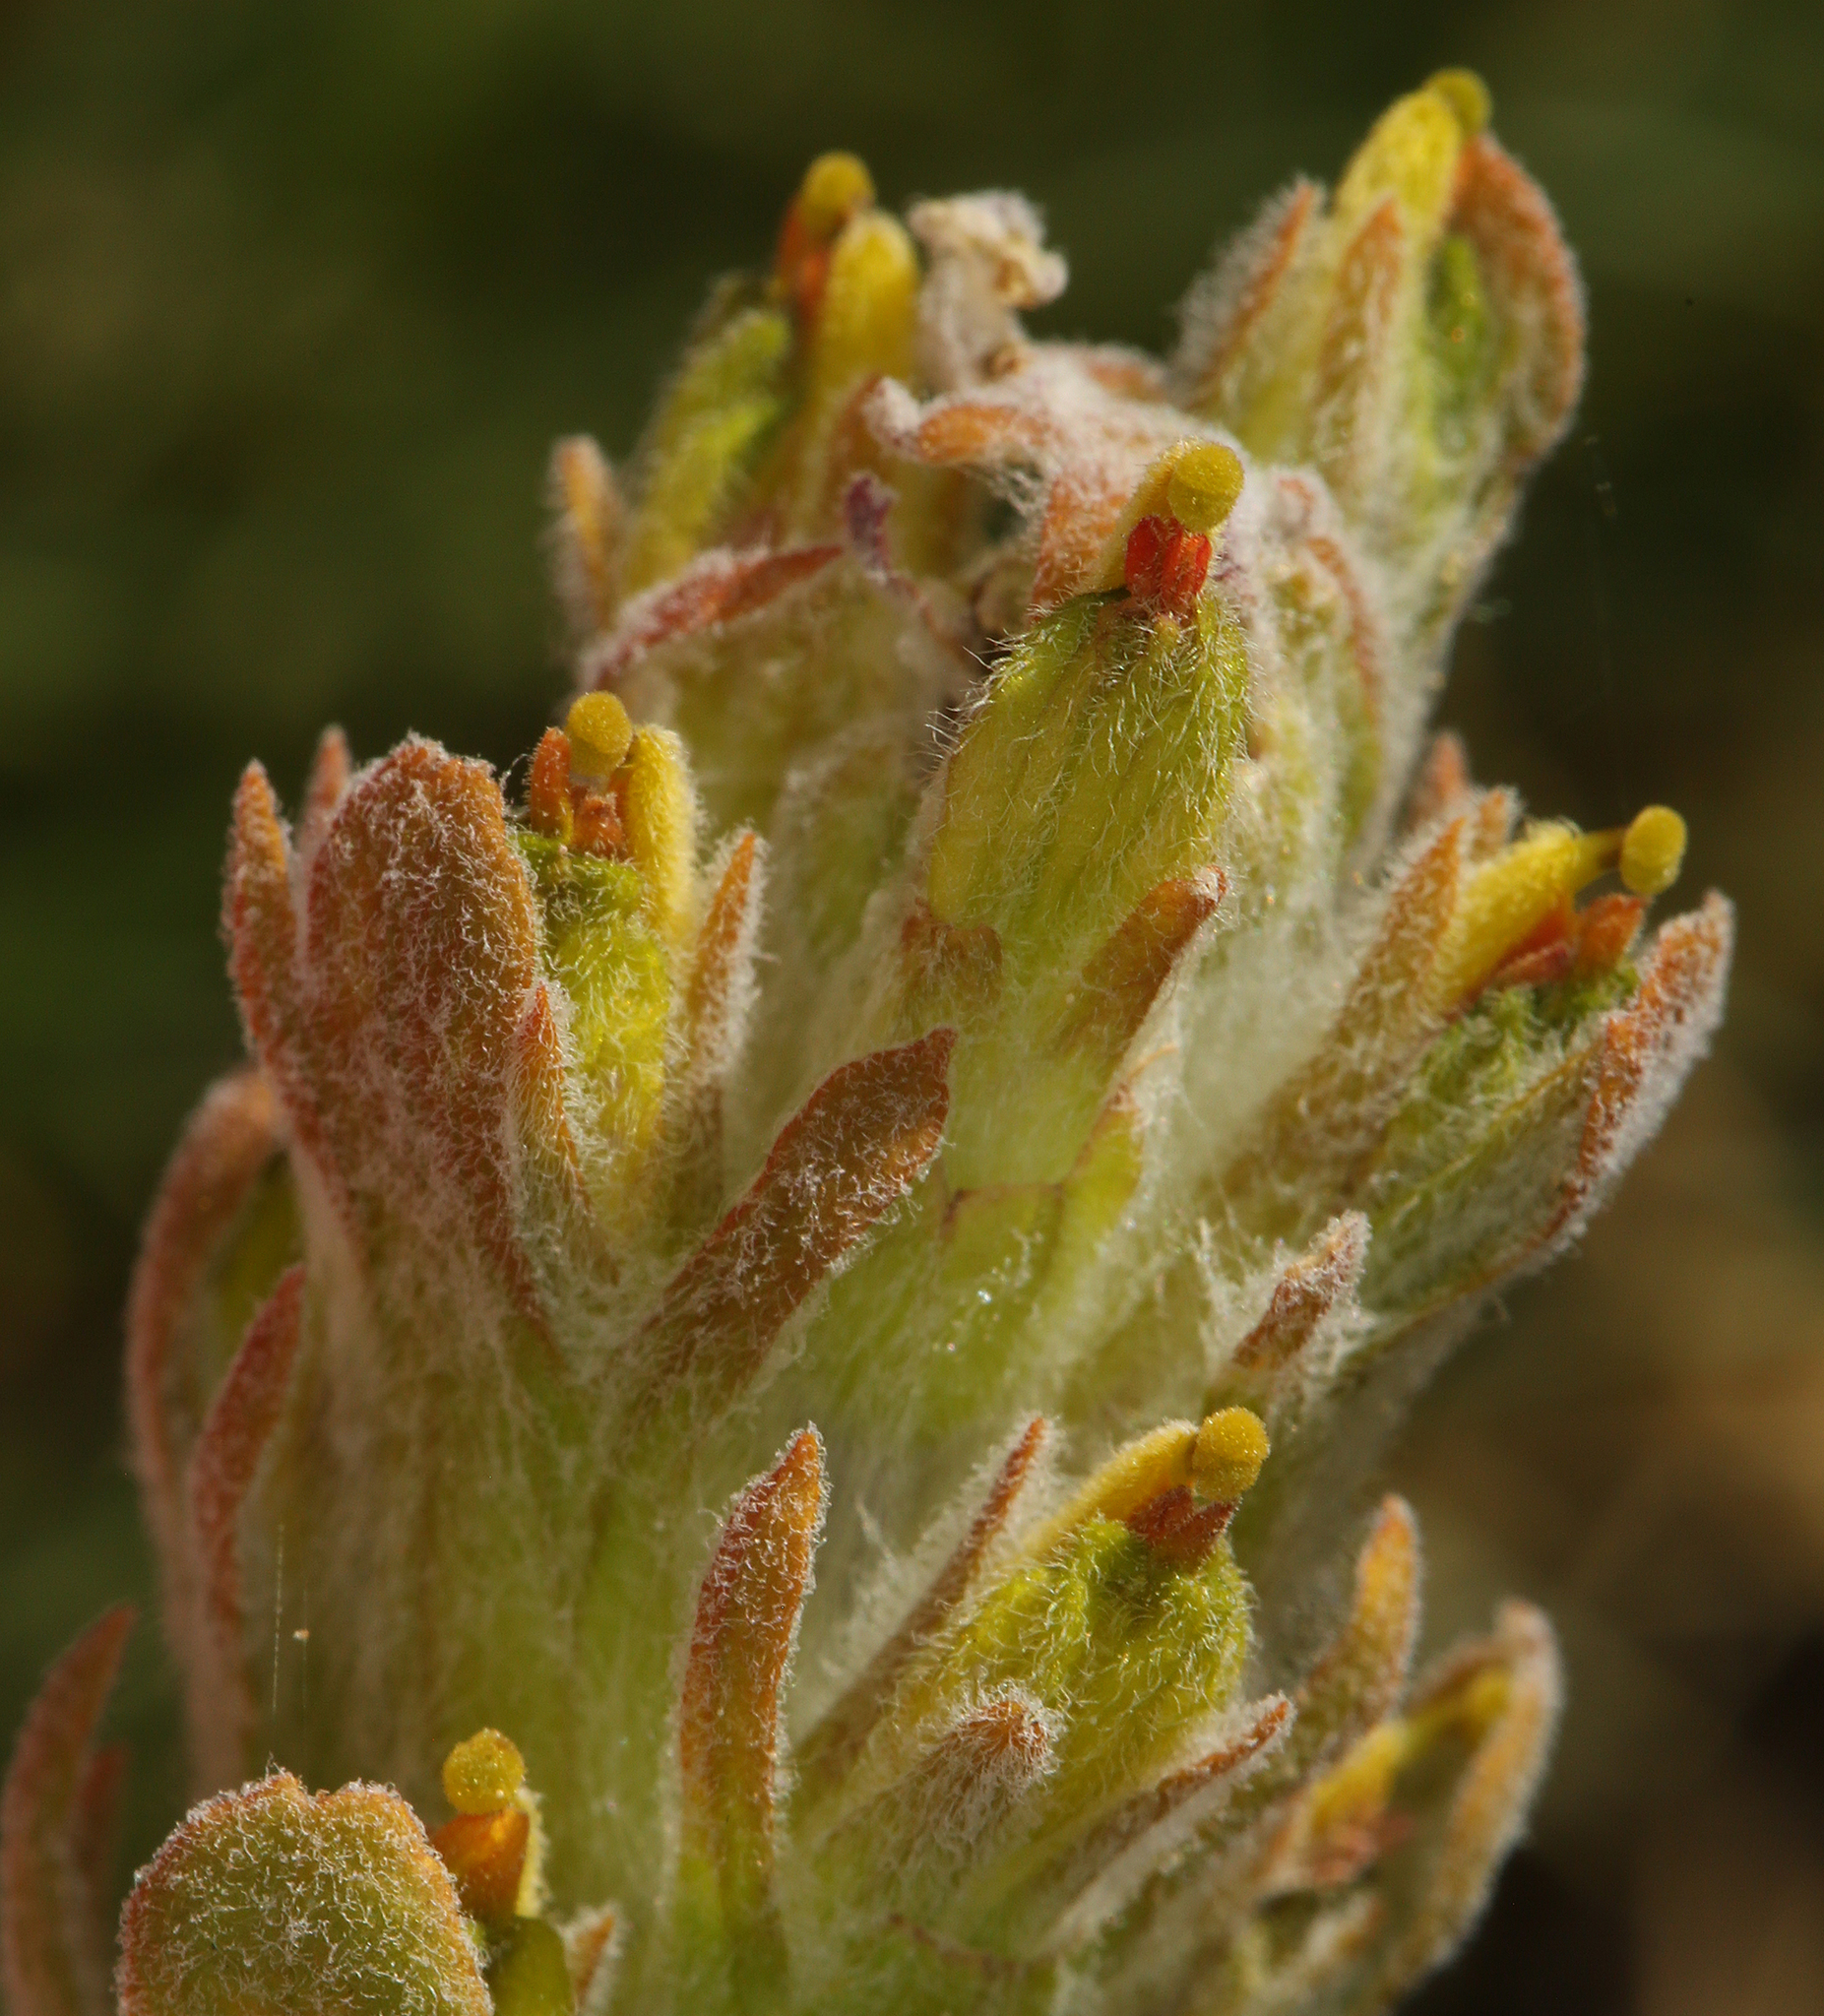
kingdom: Plantae
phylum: Tracheophyta
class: Magnoliopsida
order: Lamiales
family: Orobanchaceae
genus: Castilleja
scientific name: Castilleja arachnoidea
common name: Cobwebby indian paintbrush
